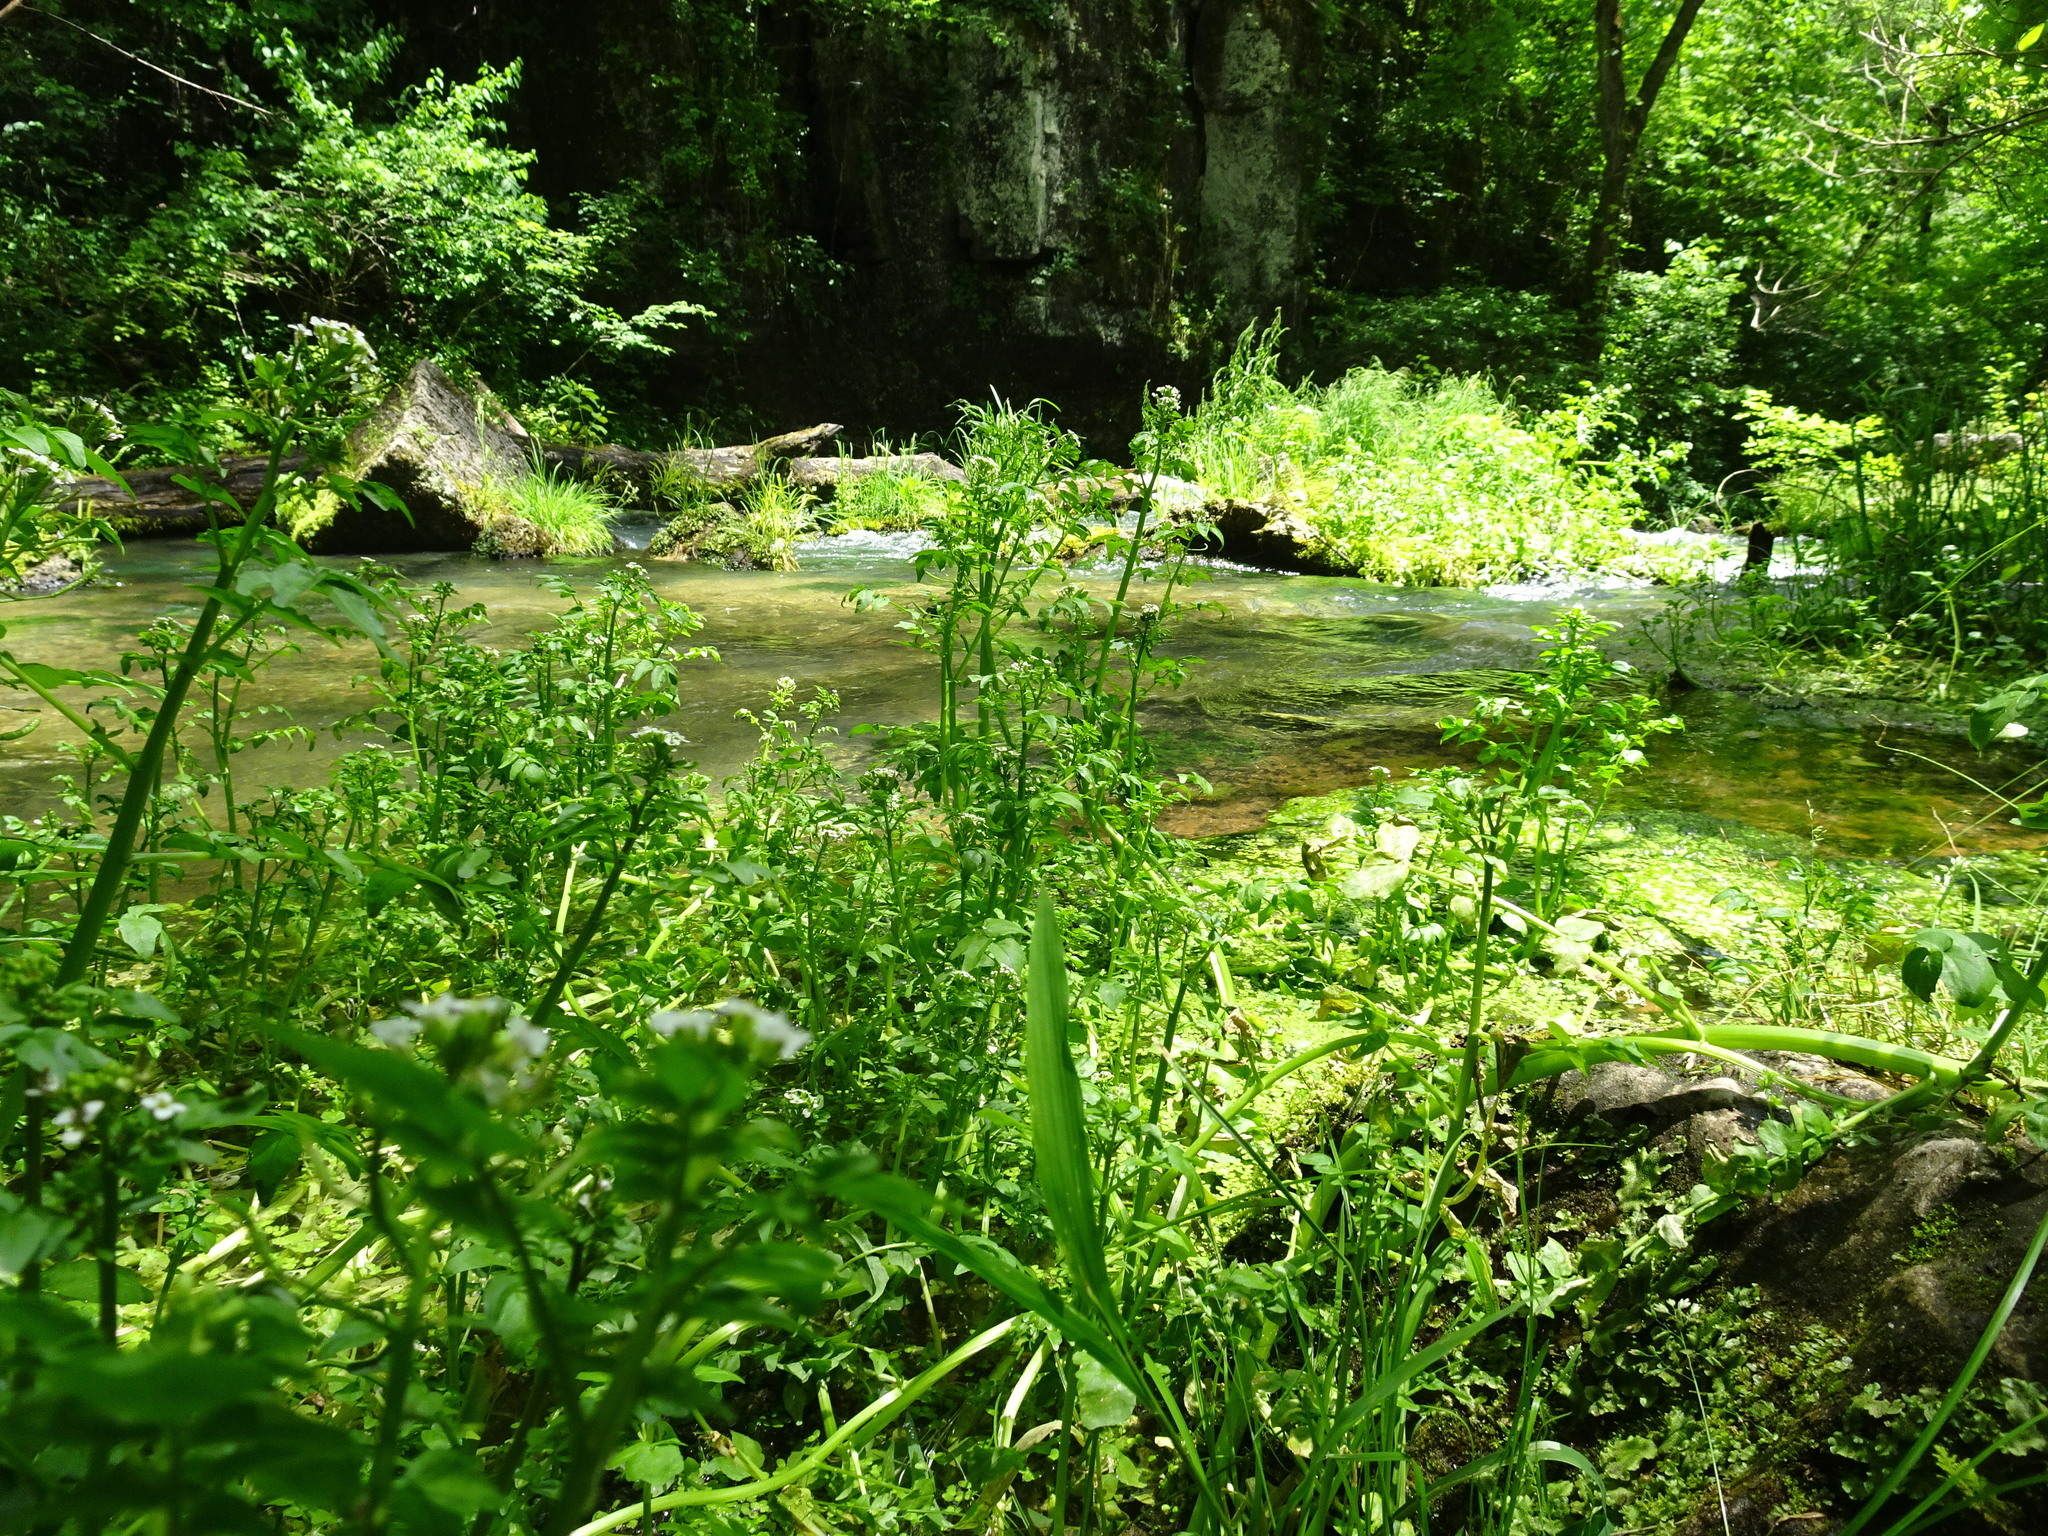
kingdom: Plantae
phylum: Tracheophyta
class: Magnoliopsida
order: Brassicales
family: Brassicaceae
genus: Nasturtium
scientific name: Nasturtium officinale
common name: Watercress
